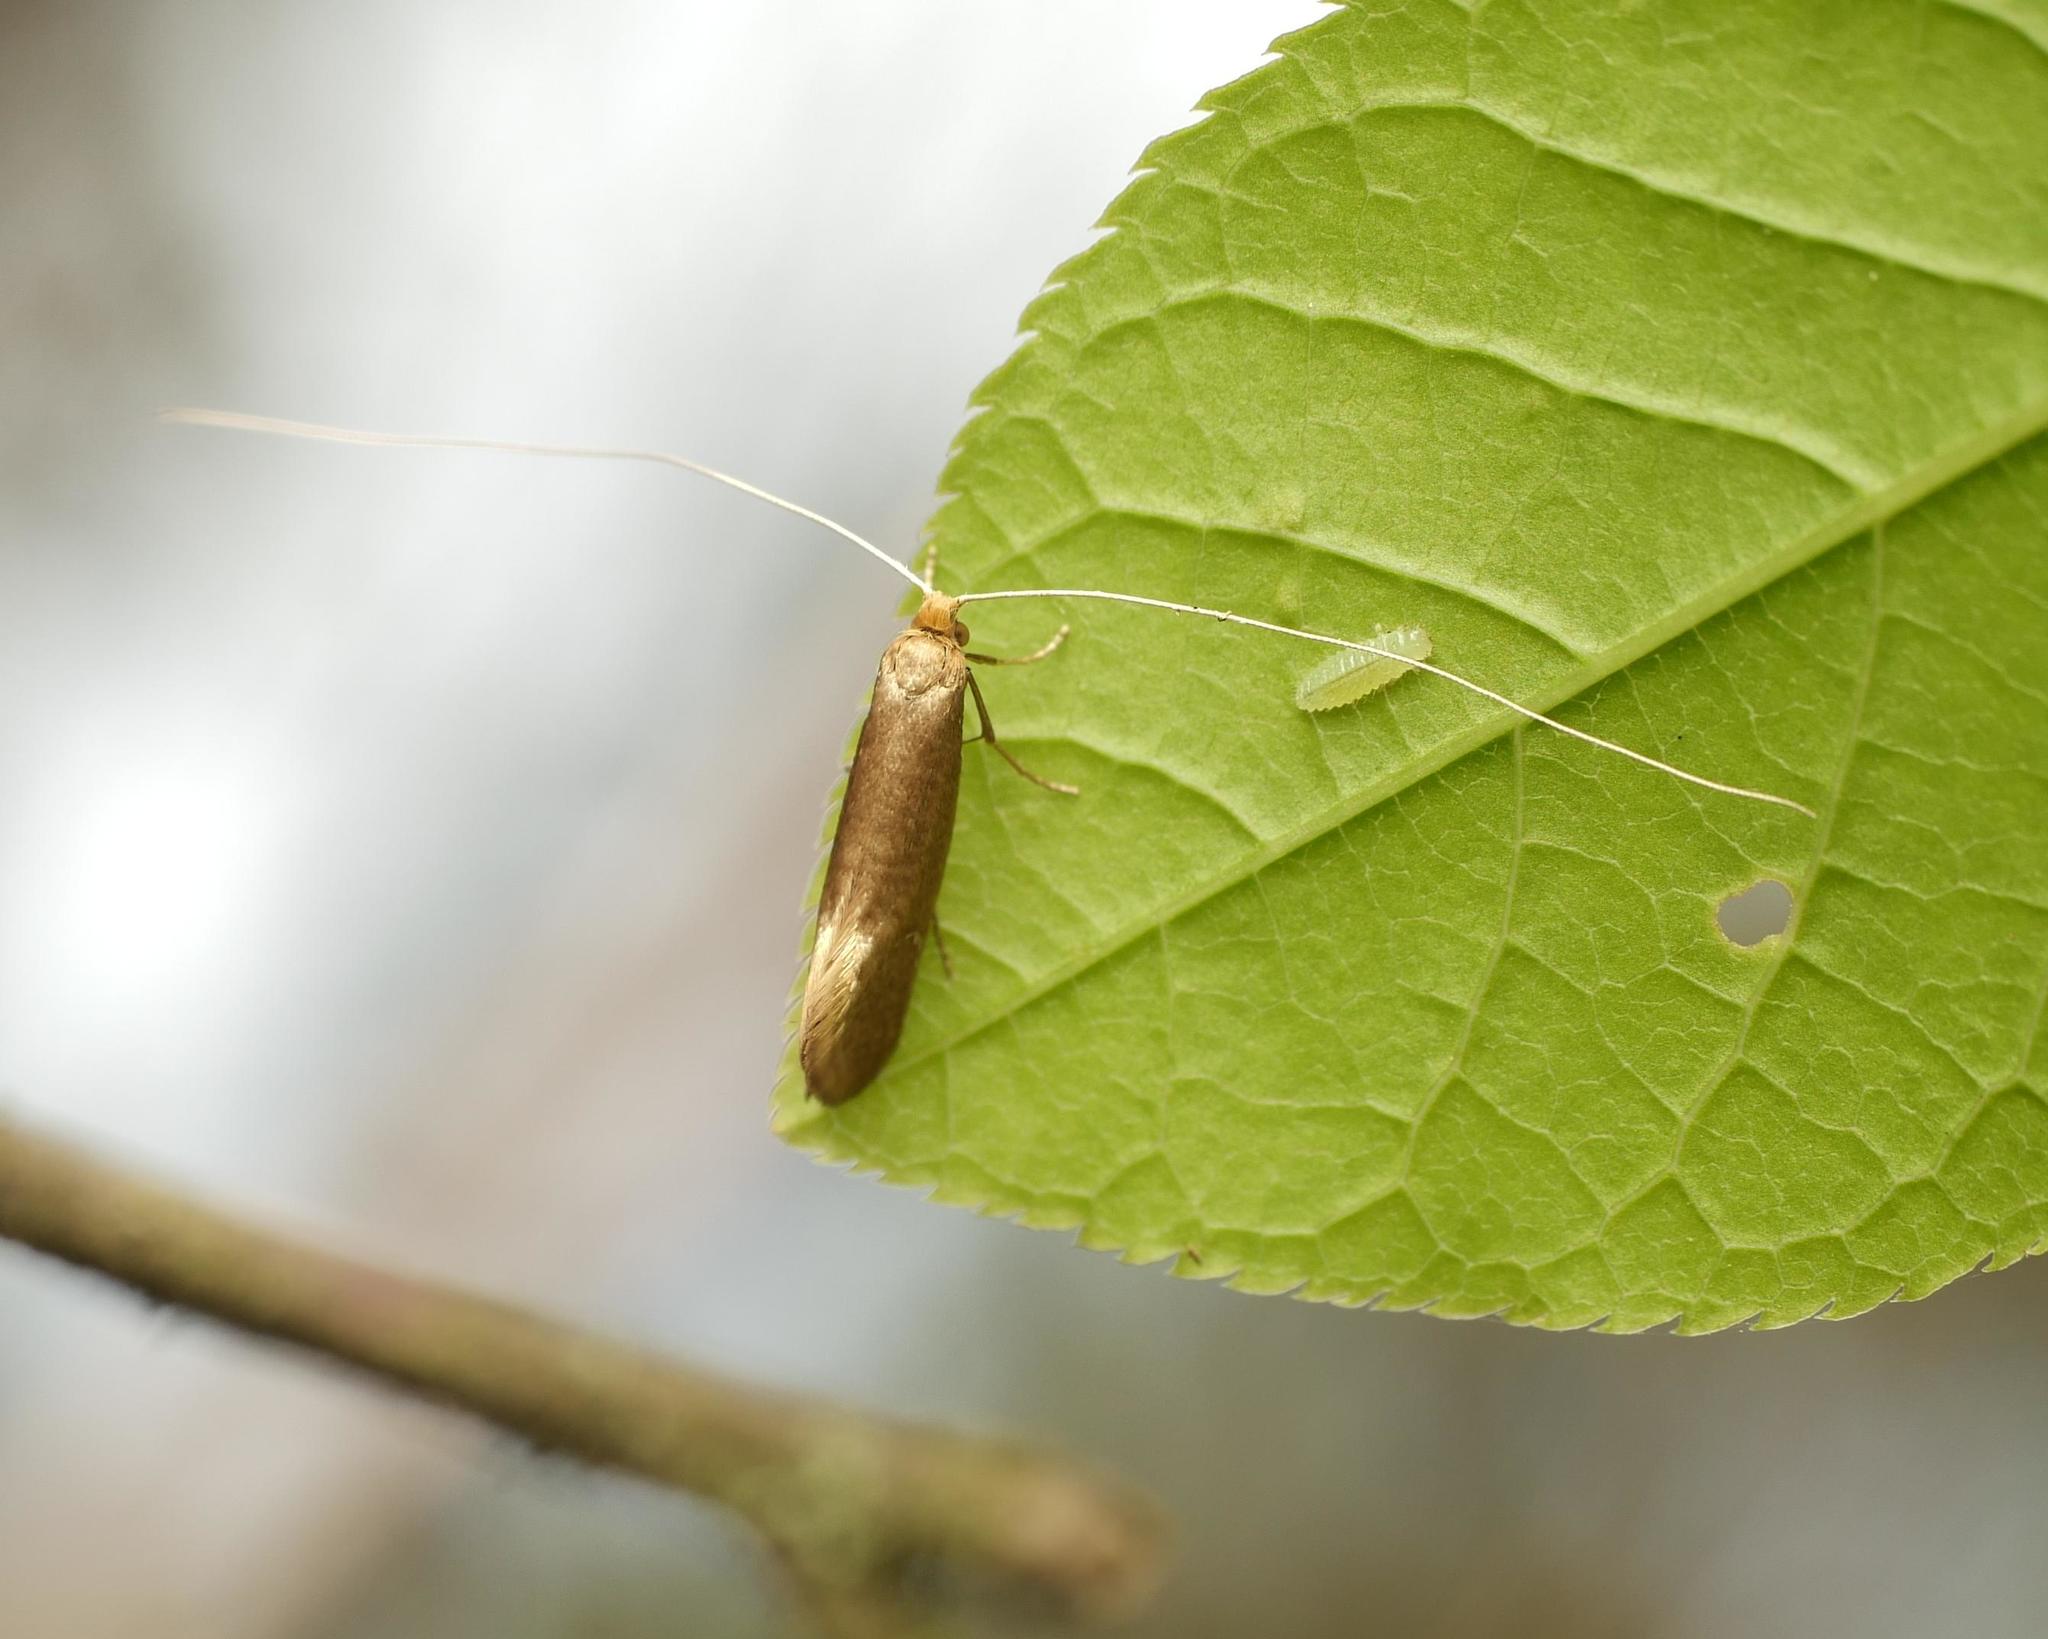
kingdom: Animalia
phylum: Arthropoda
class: Insecta
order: Lepidoptera
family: Adelidae
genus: Nematopogon
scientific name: Nematopogon swammerdamella
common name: Large long-horn
